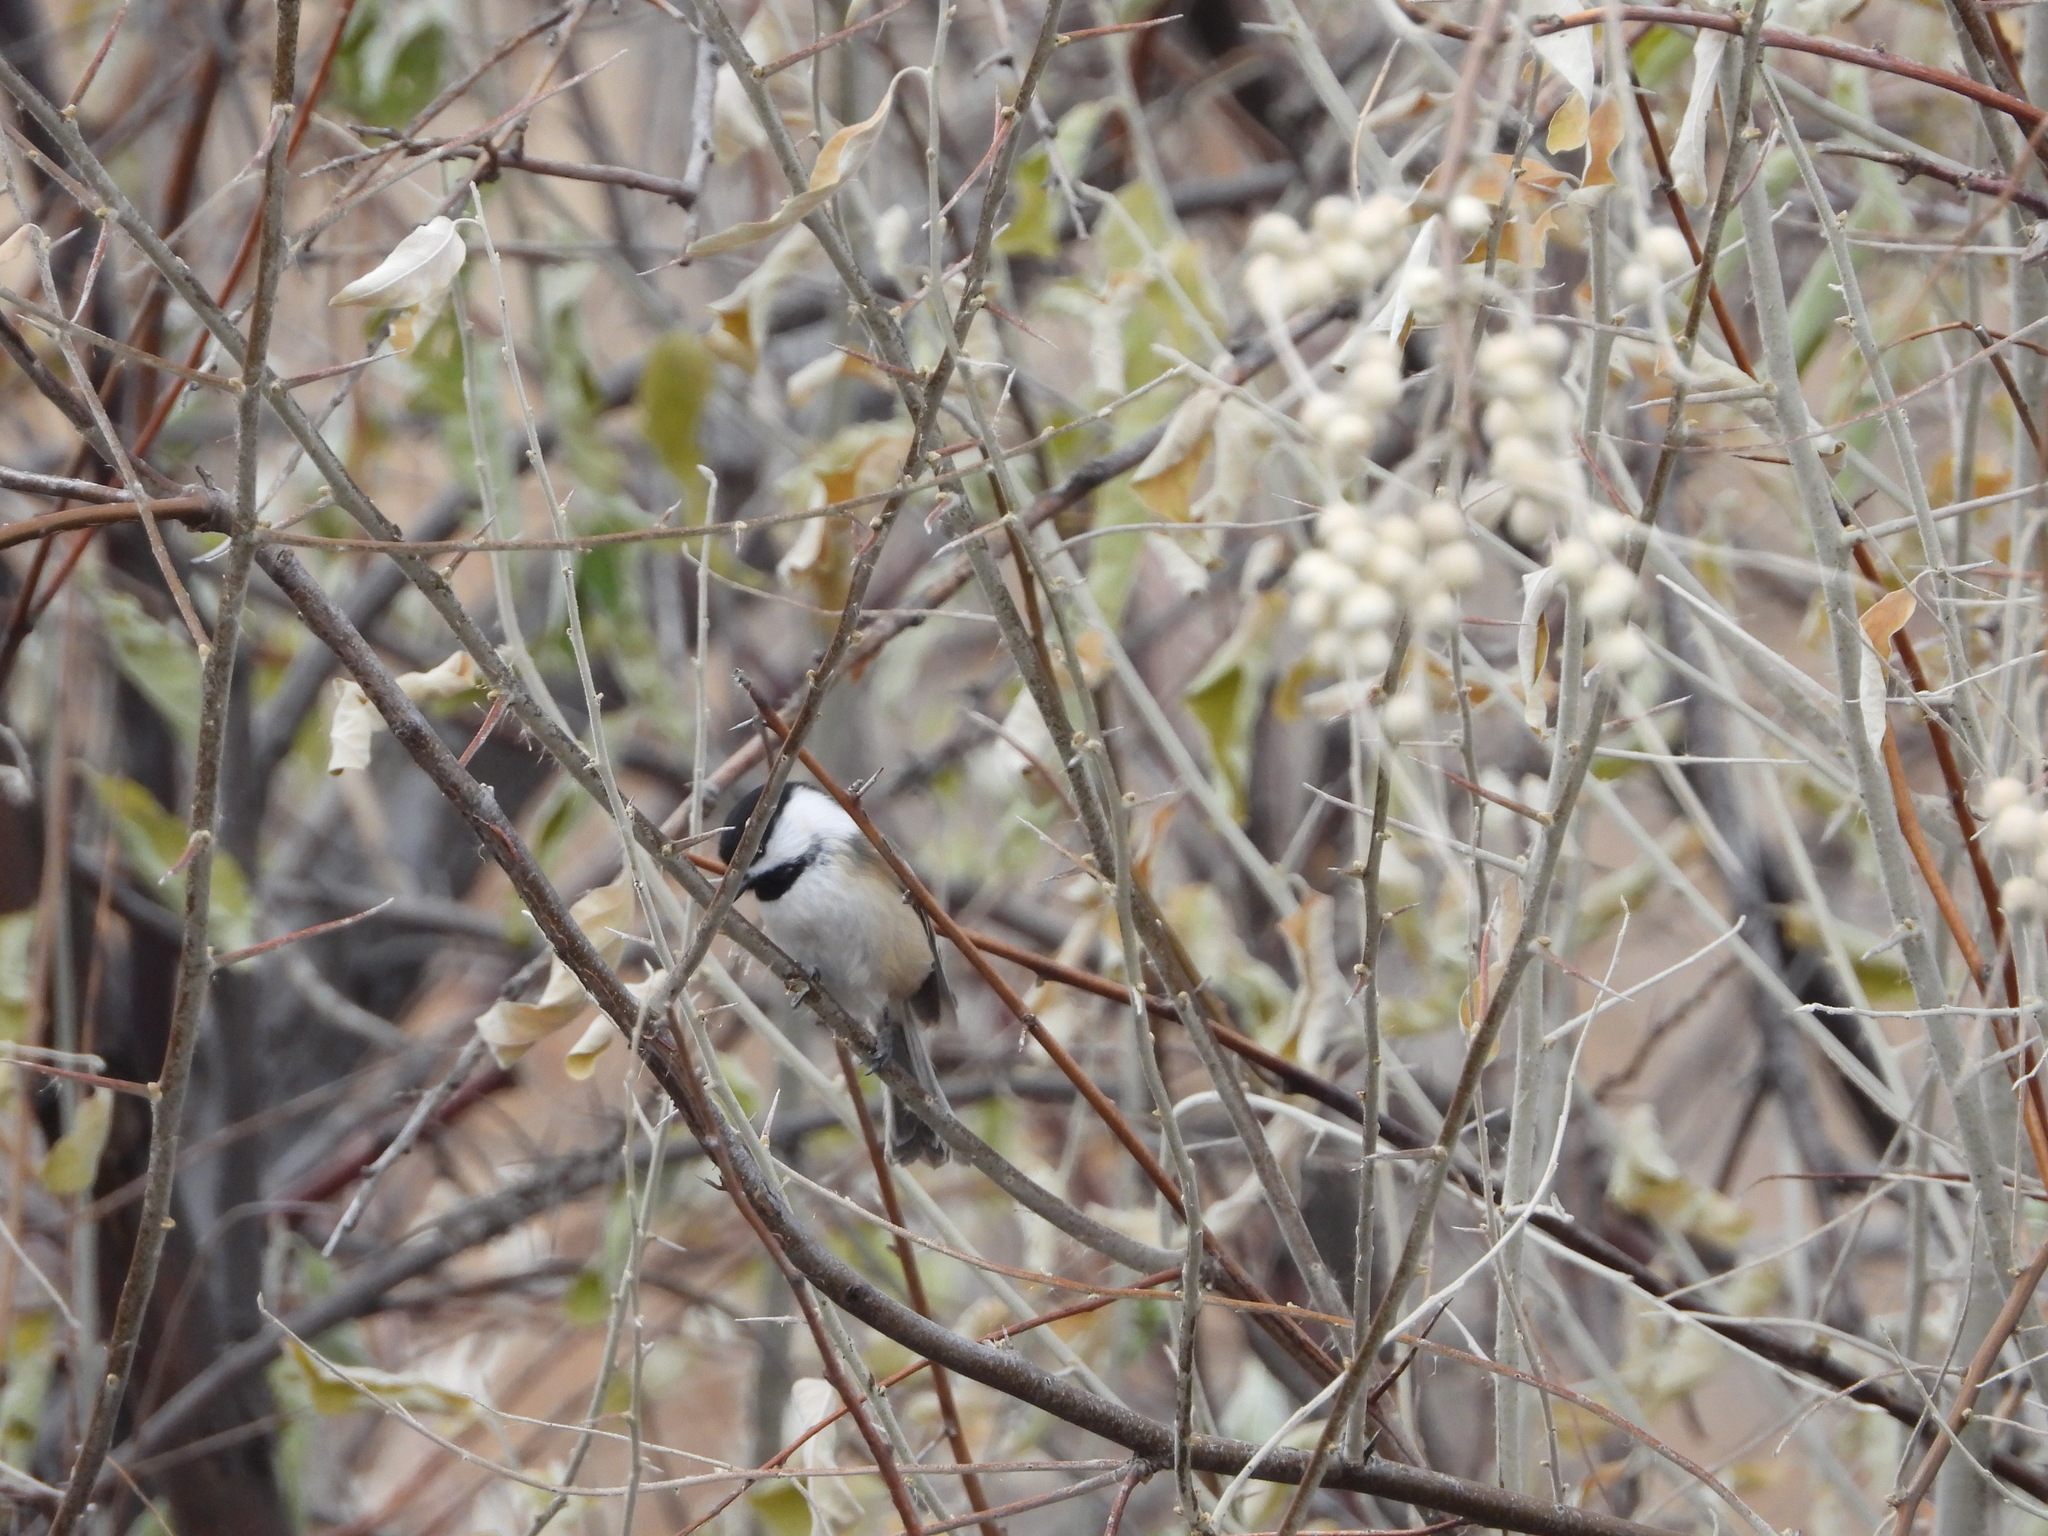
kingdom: Animalia
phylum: Chordata
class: Aves
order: Passeriformes
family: Paridae
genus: Poecile
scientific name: Poecile atricapillus
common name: Black-capped chickadee
